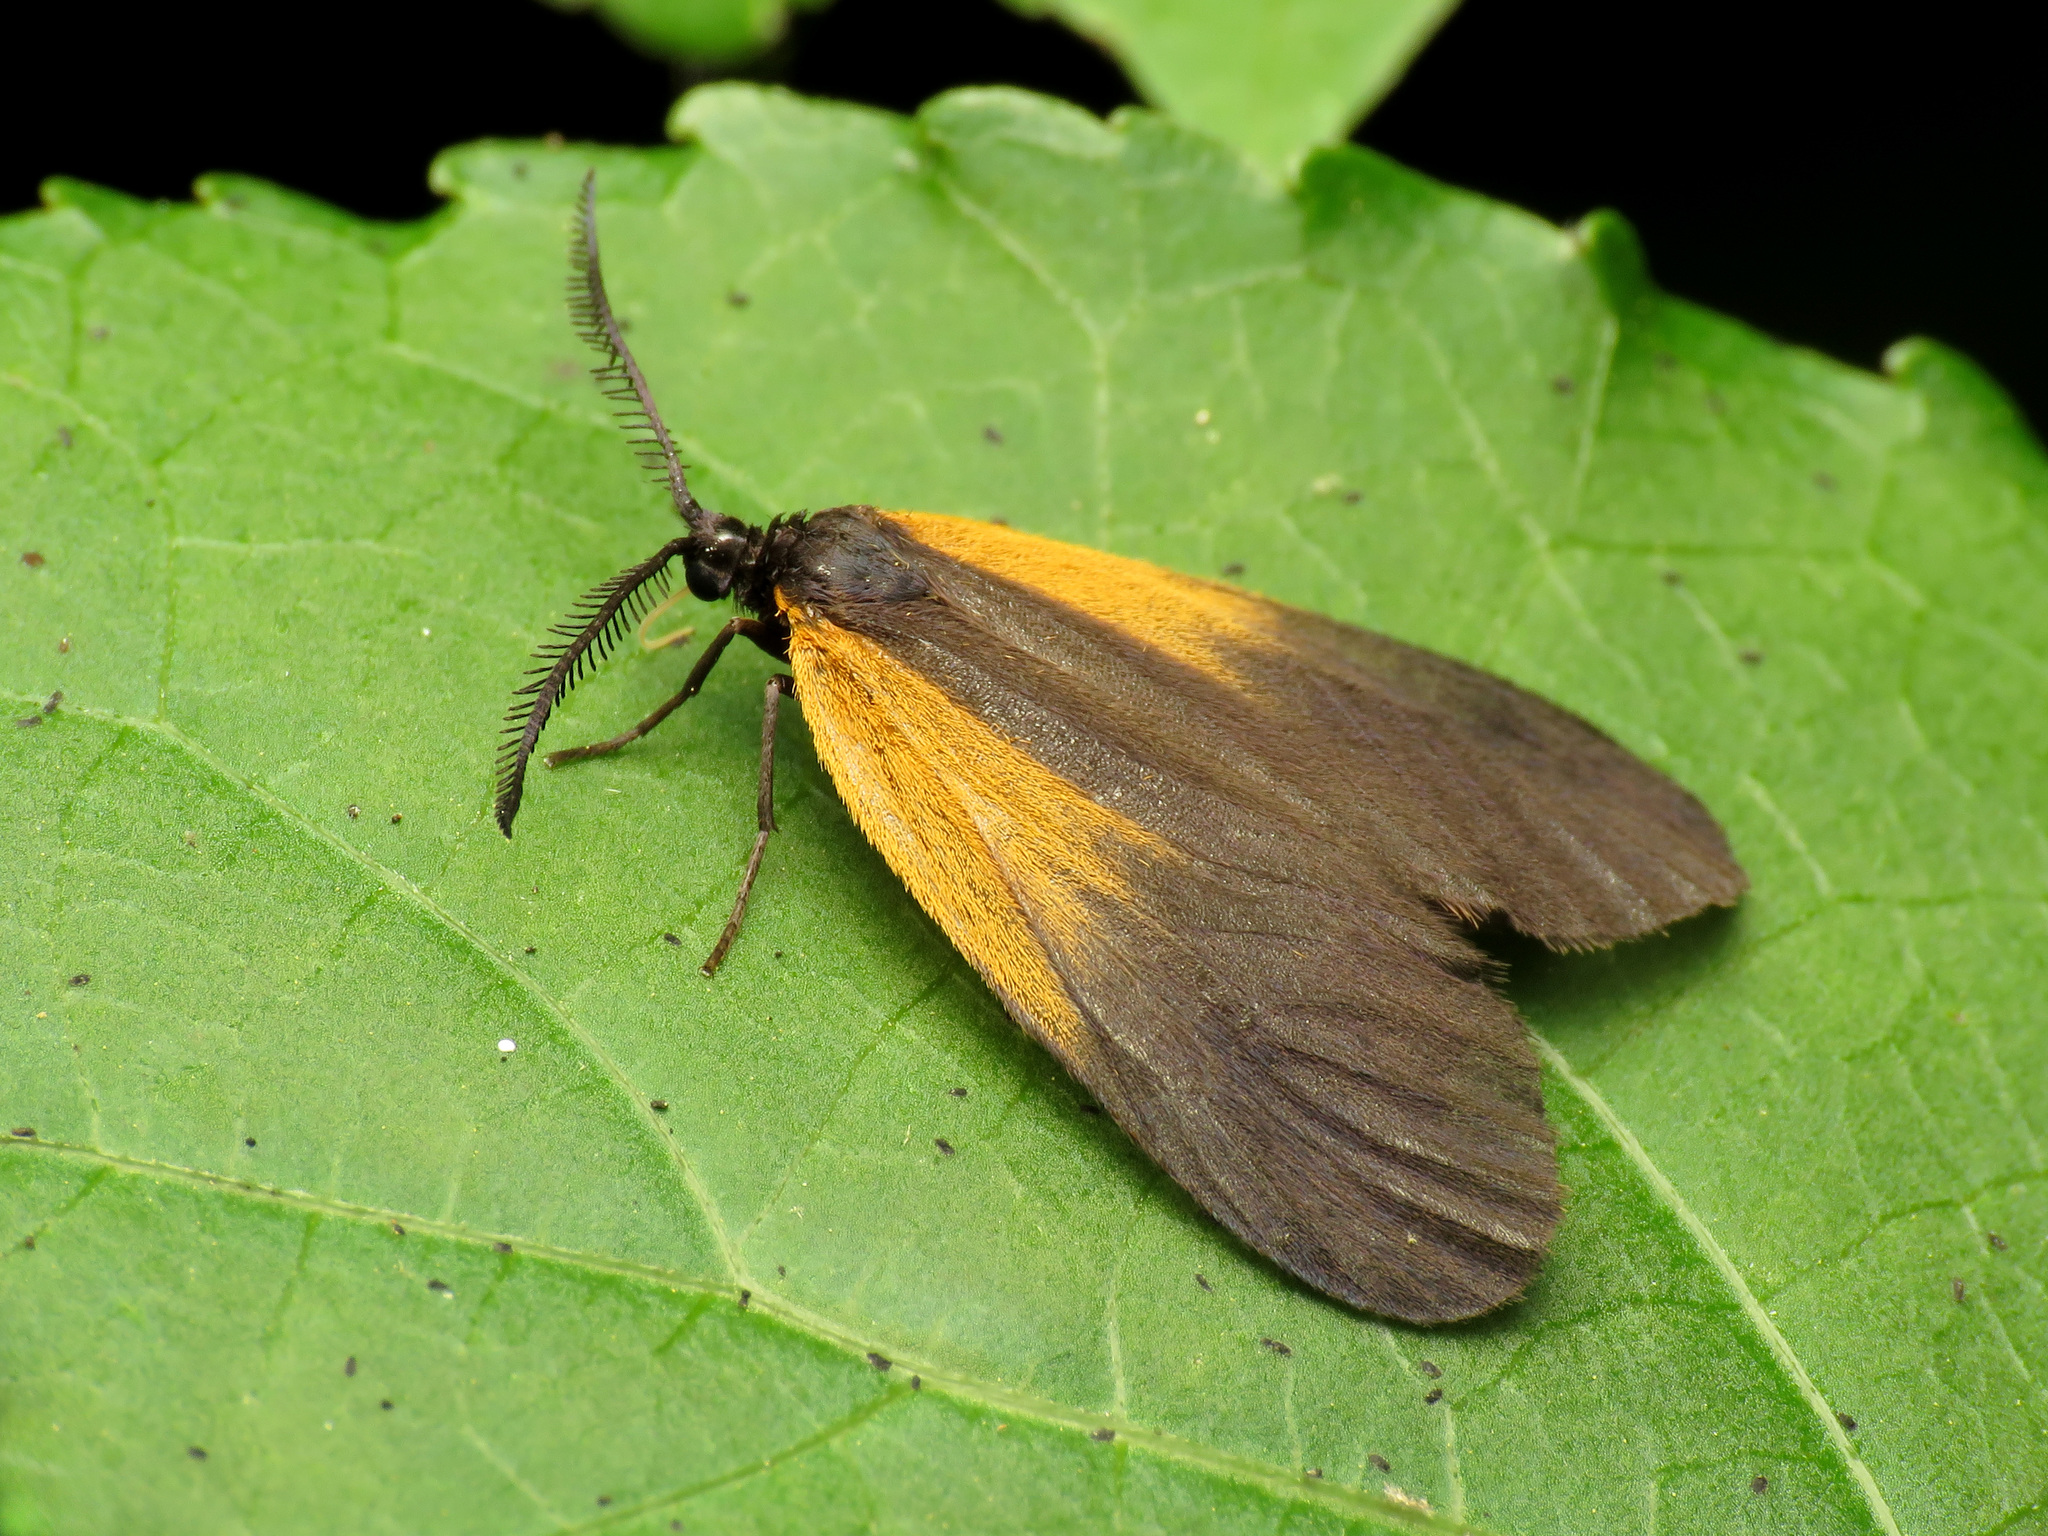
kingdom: Animalia
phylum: Arthropoda
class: Insecta
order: Lepidoptera
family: Zygaenidae
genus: Malthaca
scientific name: Malthaca dimidiata
